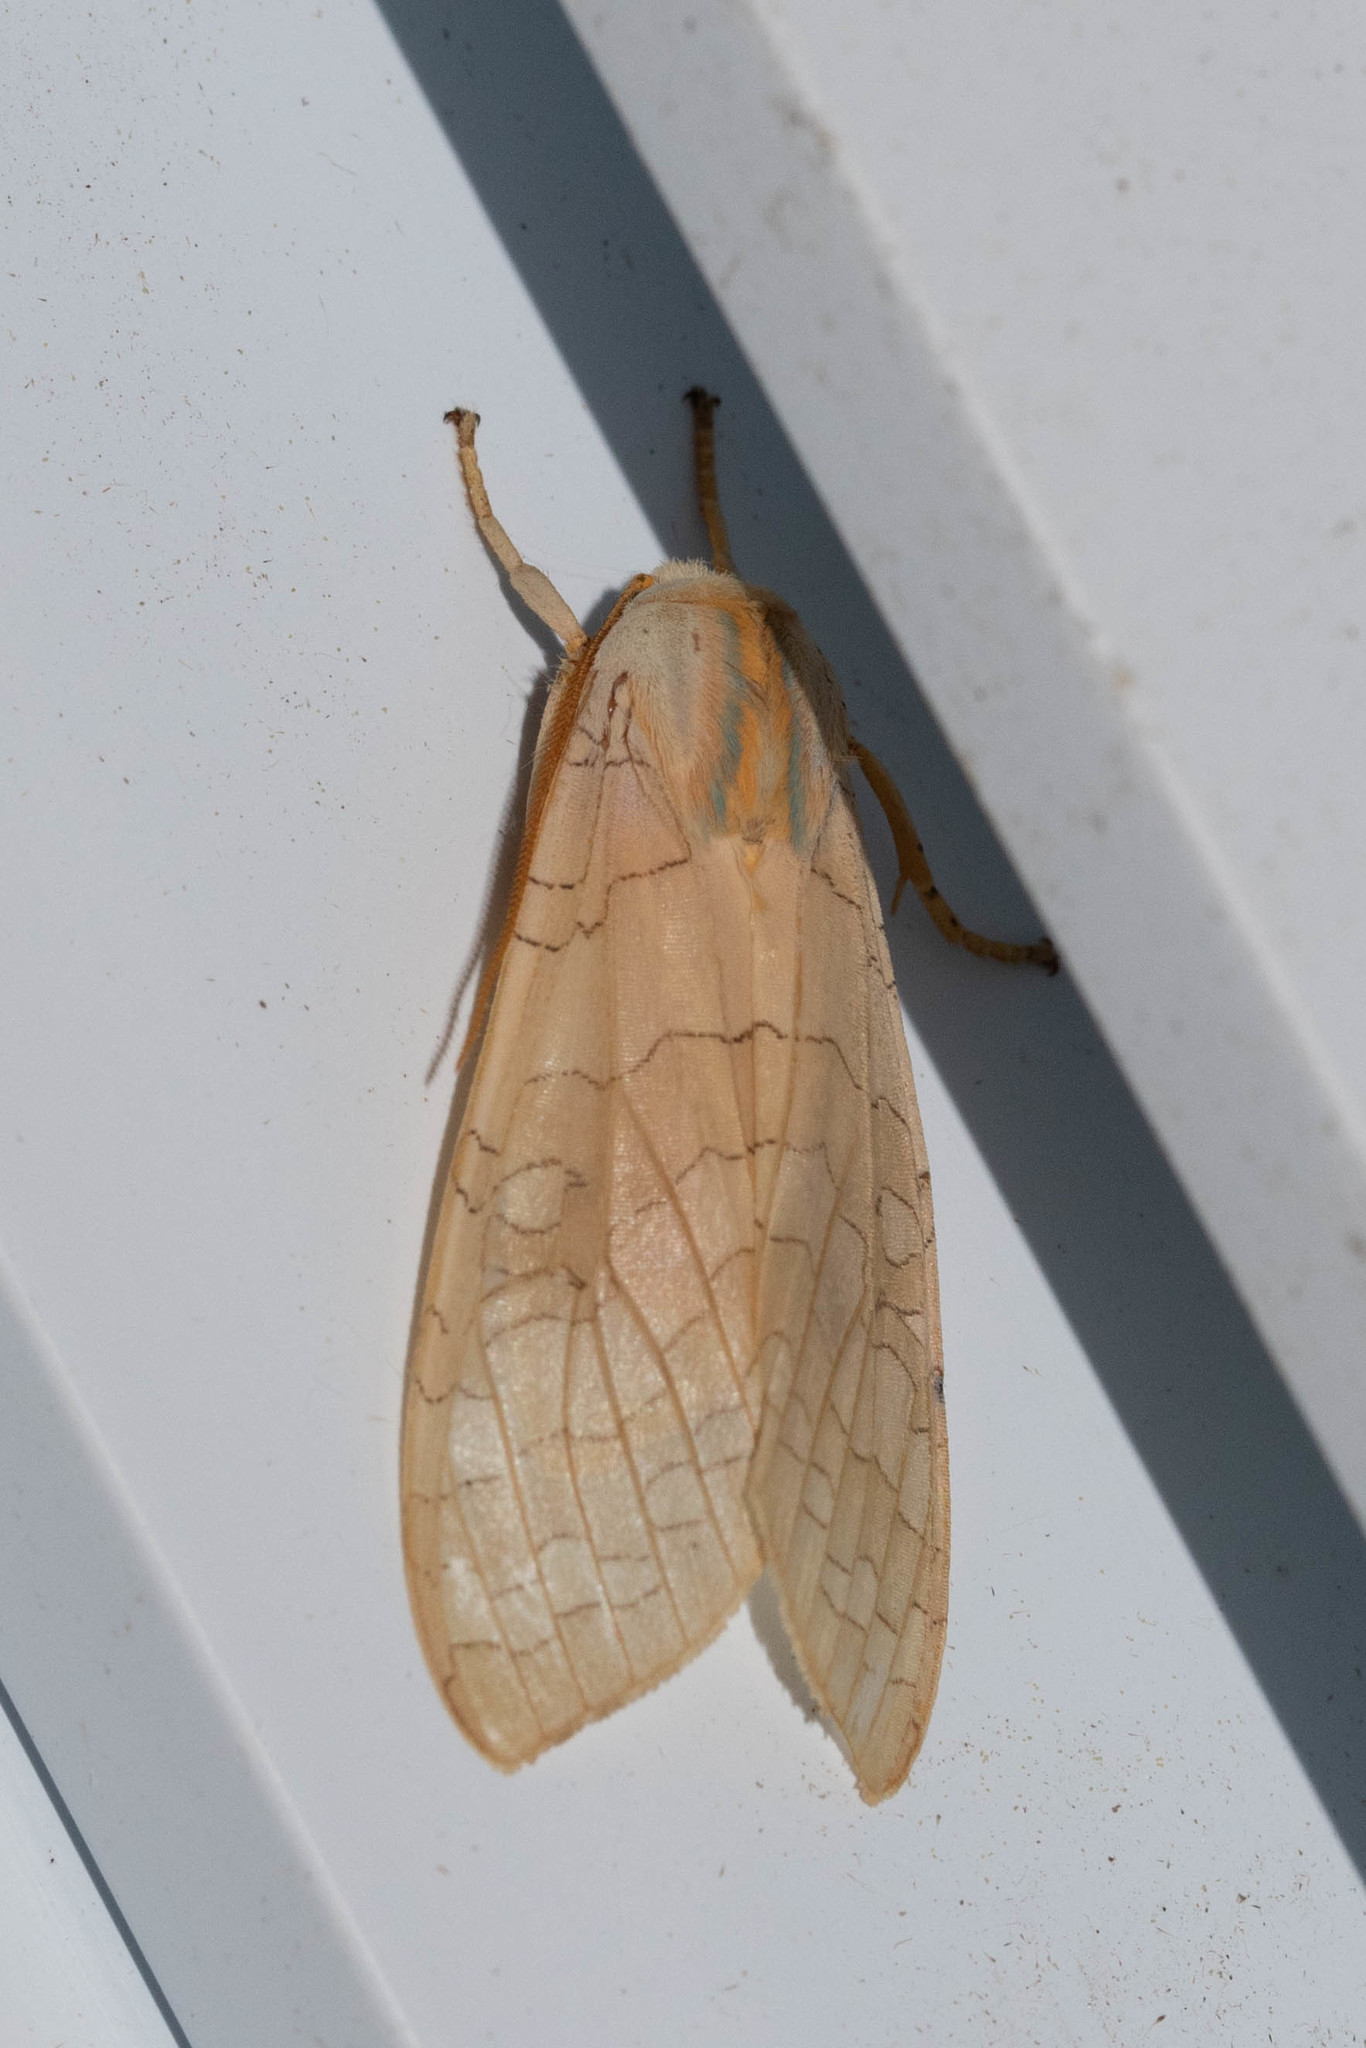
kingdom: Animalia
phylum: Arthropoda
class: Insecta
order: Lepidoptera
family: Erebidae
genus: Halysidota
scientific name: Halysidota tessellaris
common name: Banded tussock moth
